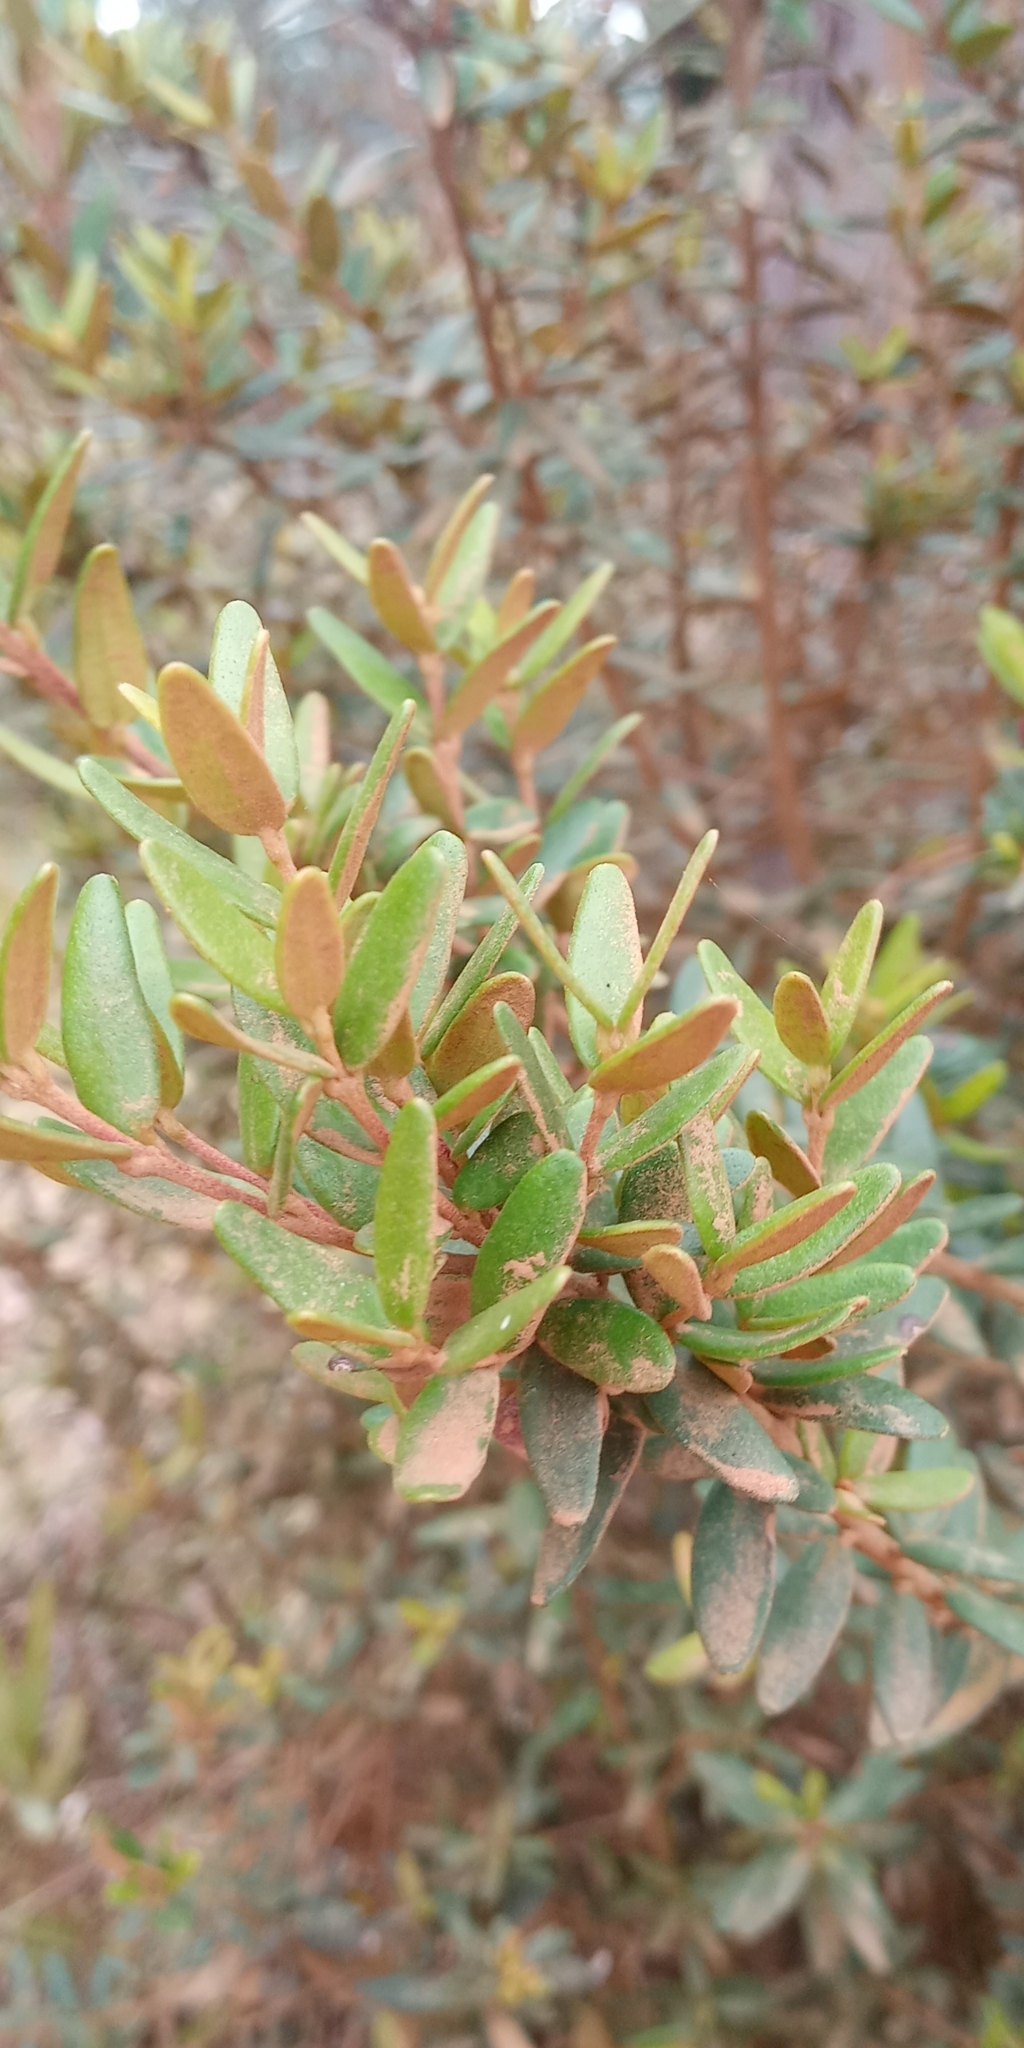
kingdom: Plantae
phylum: Tracheophyta
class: Magnoliopsida
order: Myrtales
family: Myrtaceae
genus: Myrceugenia
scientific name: Myrceugenia rufa
